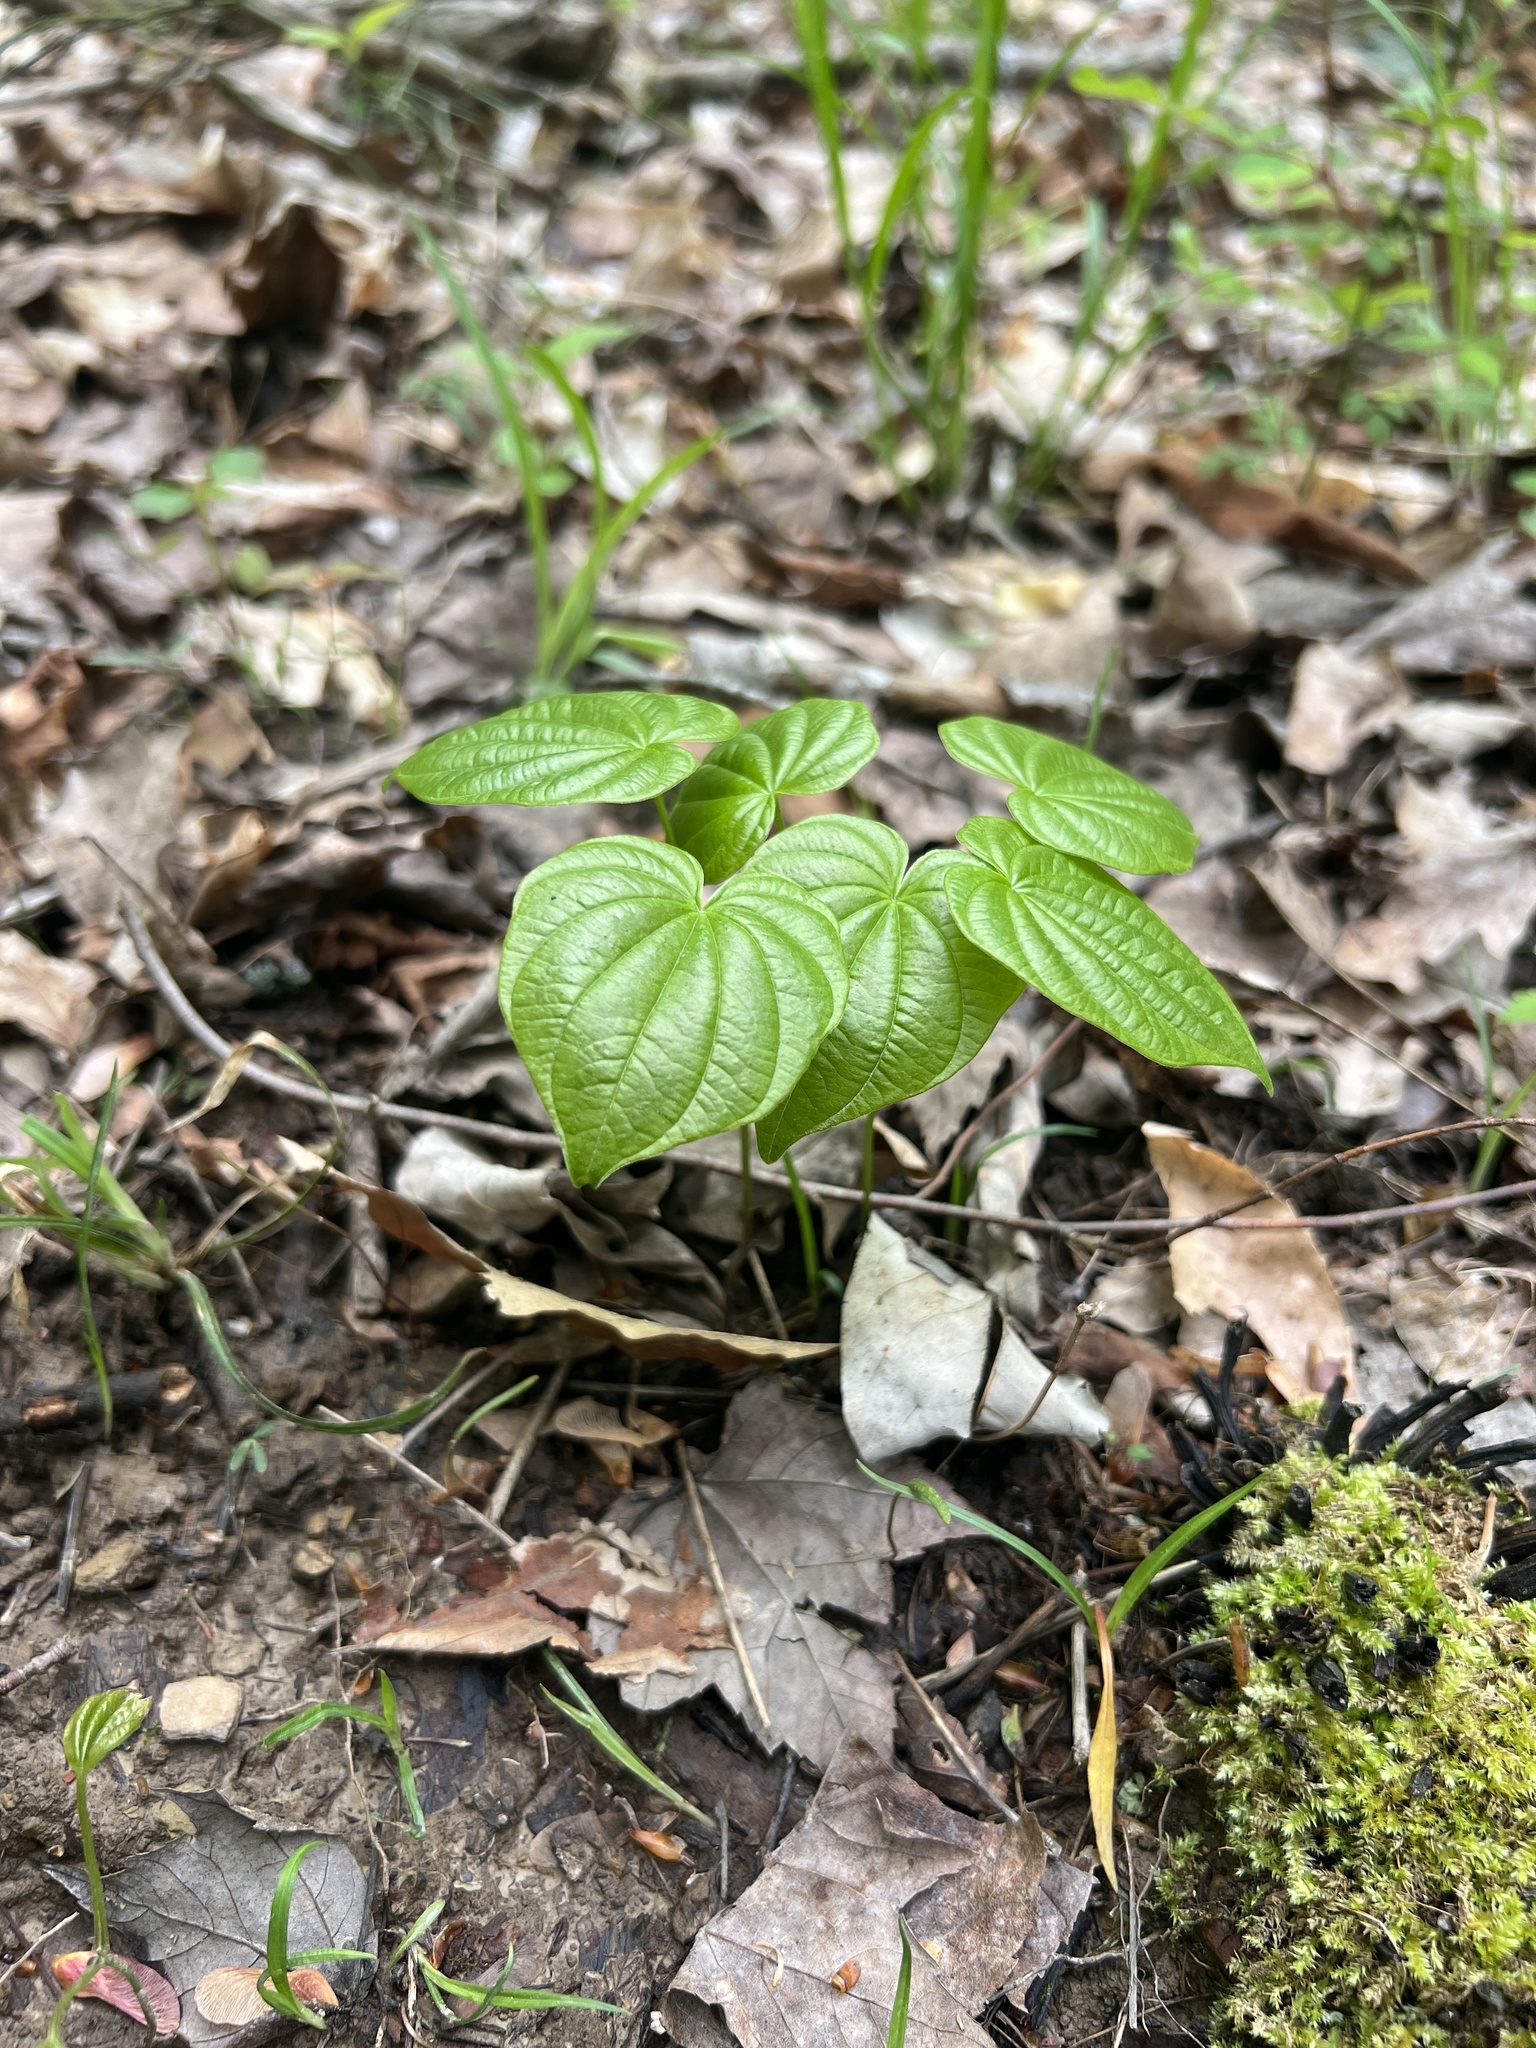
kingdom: Plantae
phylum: Tracheophyta
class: Liliopsida
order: Dioscoreales
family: Dioscoreaceae
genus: Dioscorea
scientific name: Dioscorea villosa
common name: Wild yam
